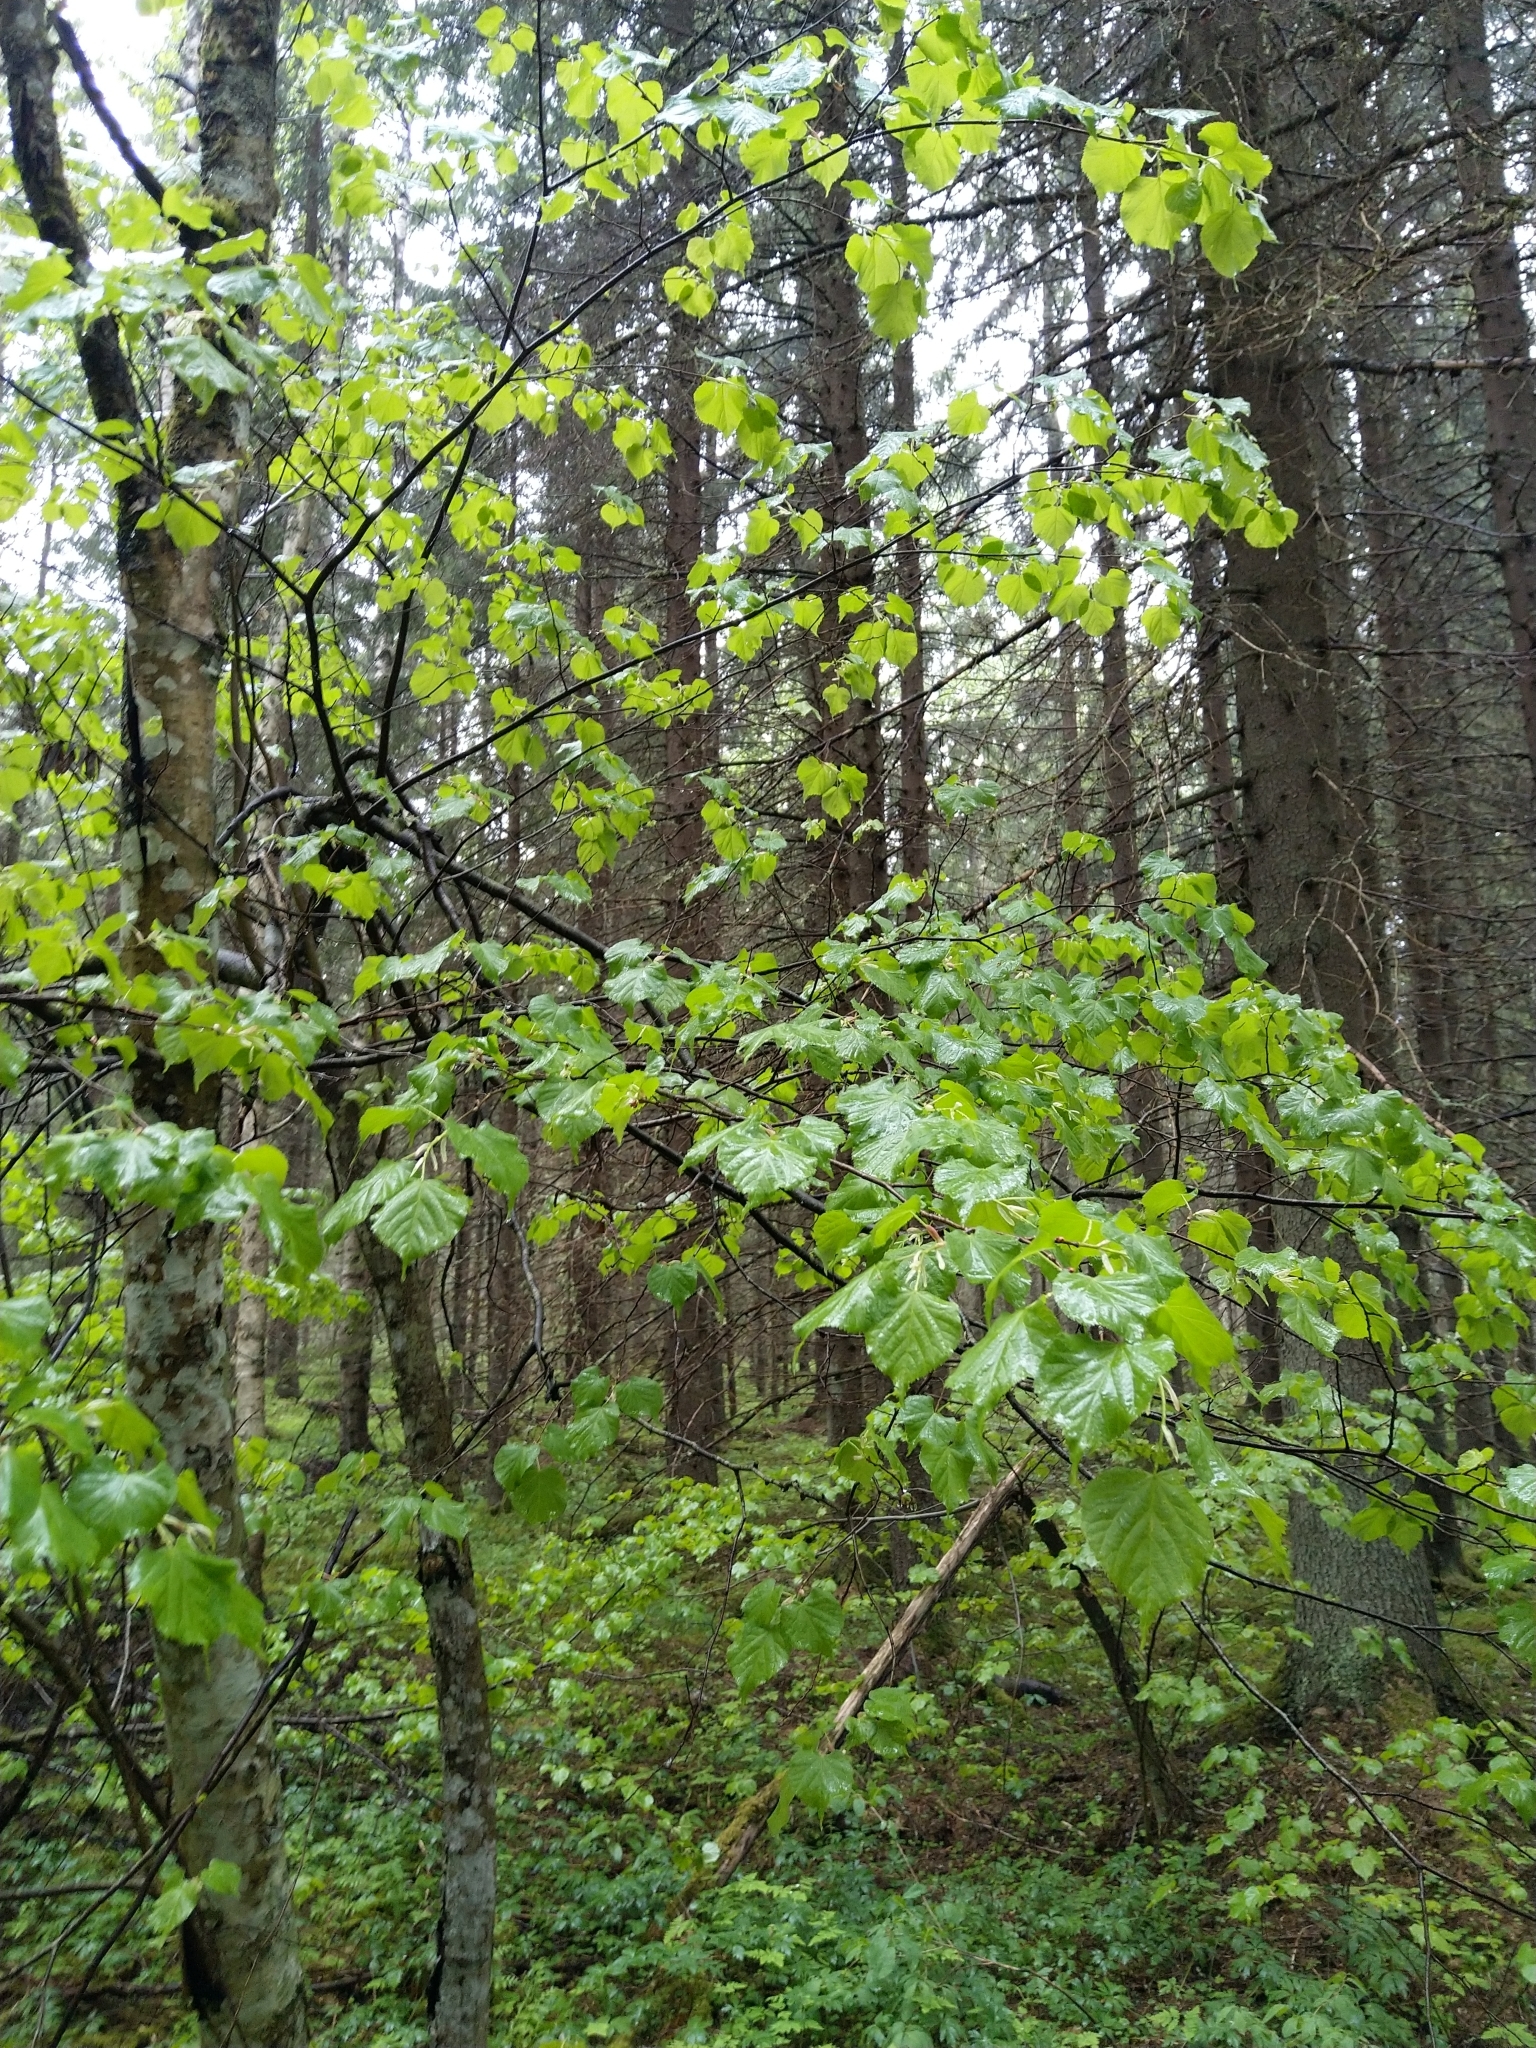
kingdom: Plantae
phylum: Tracheophyta
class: Magnoliopsida
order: Malvales
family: Malvaceae
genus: Tilia
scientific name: Tilia cordata
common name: Small-leaved lime
